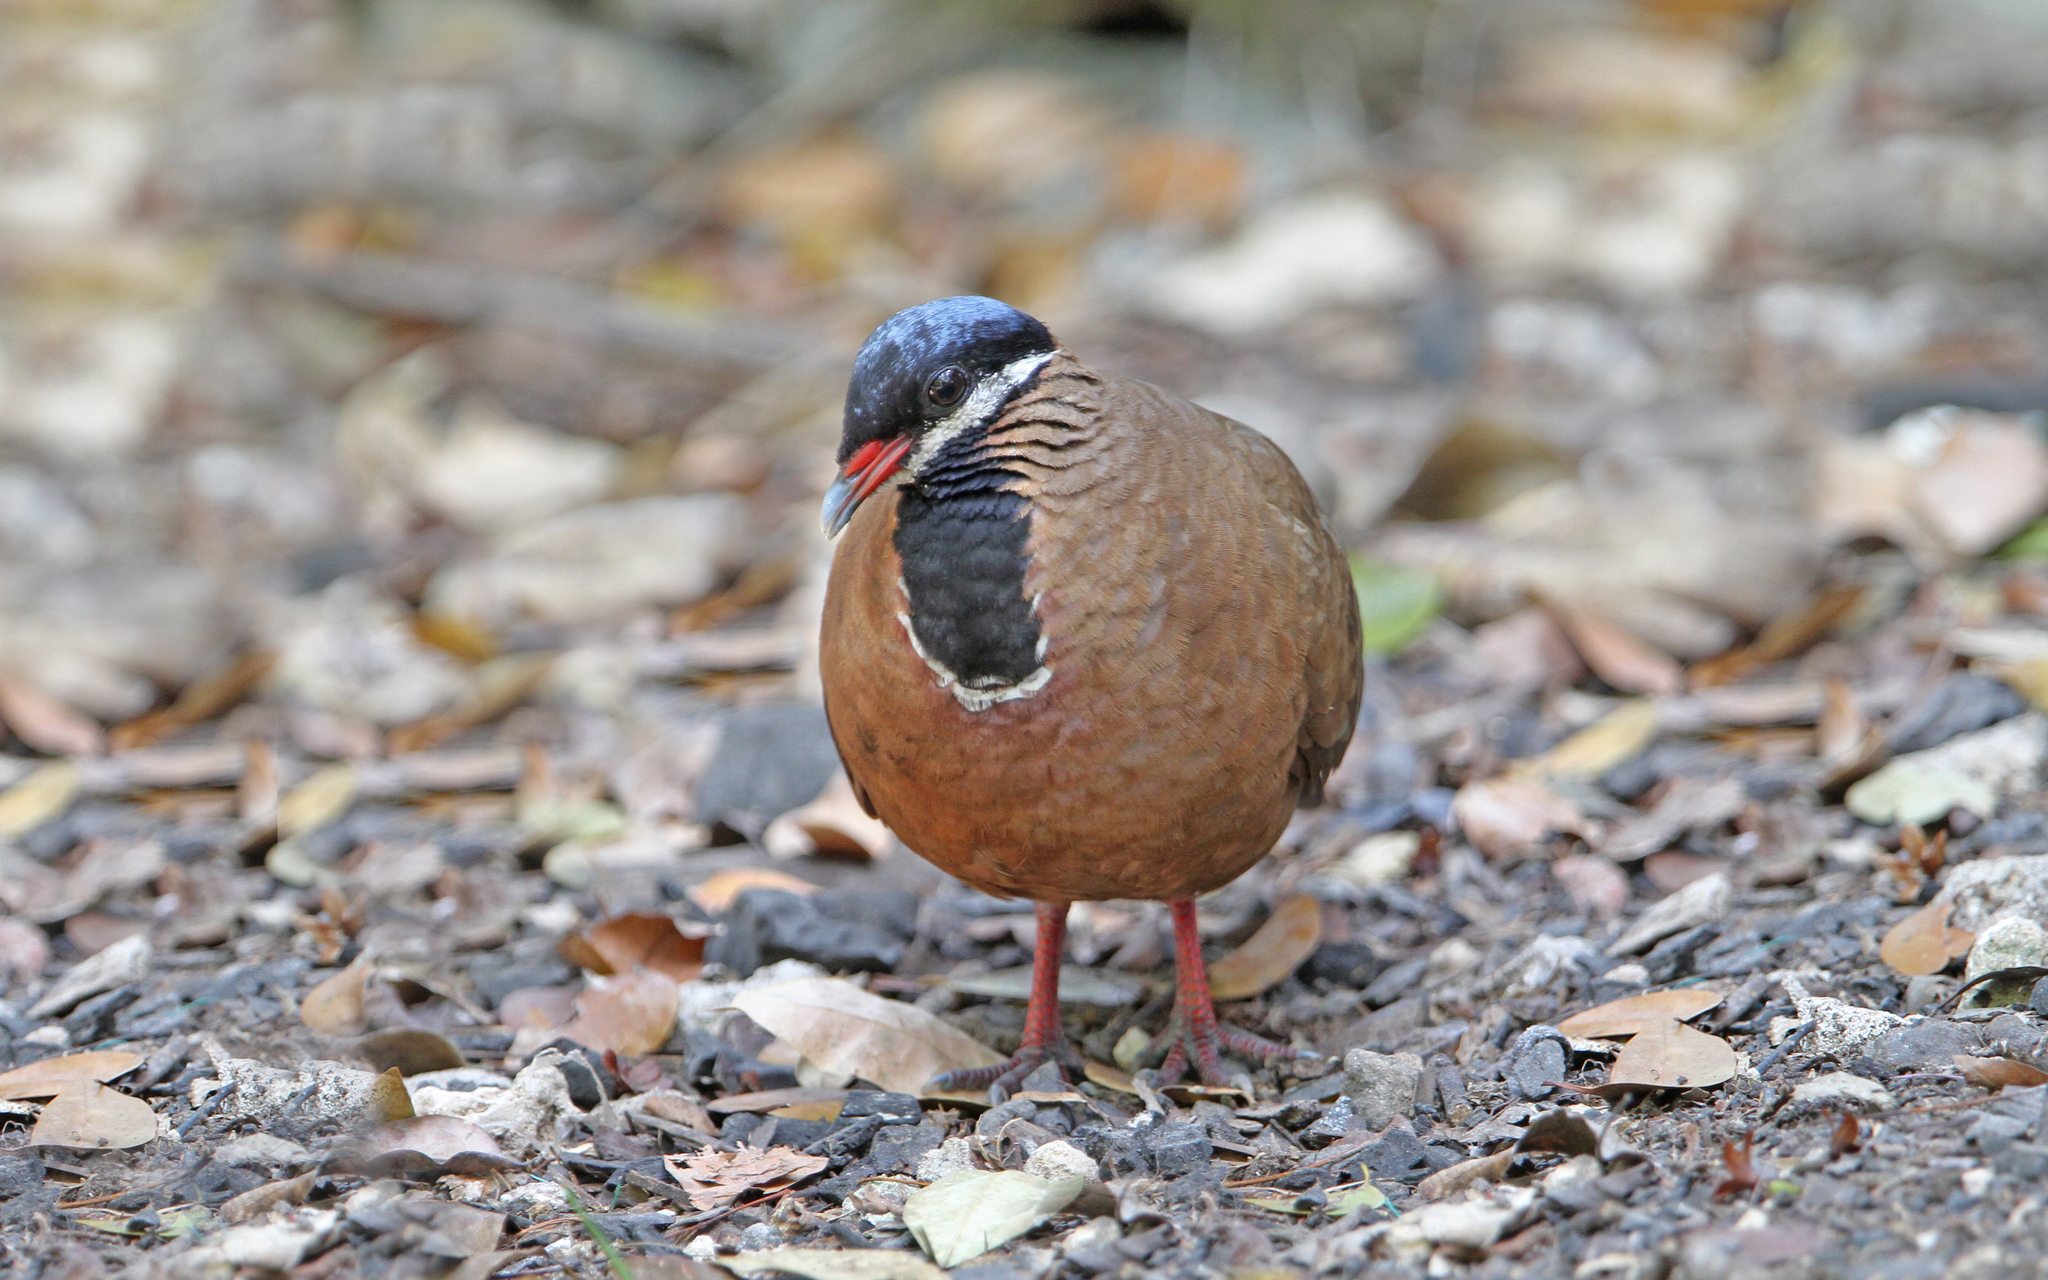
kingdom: Animalia
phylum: Chordata
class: Aves
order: Columbiformes
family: Columbidae
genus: Starnoenas
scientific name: Starnoenas cyanocephala
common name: Blue-headed quail-dove
